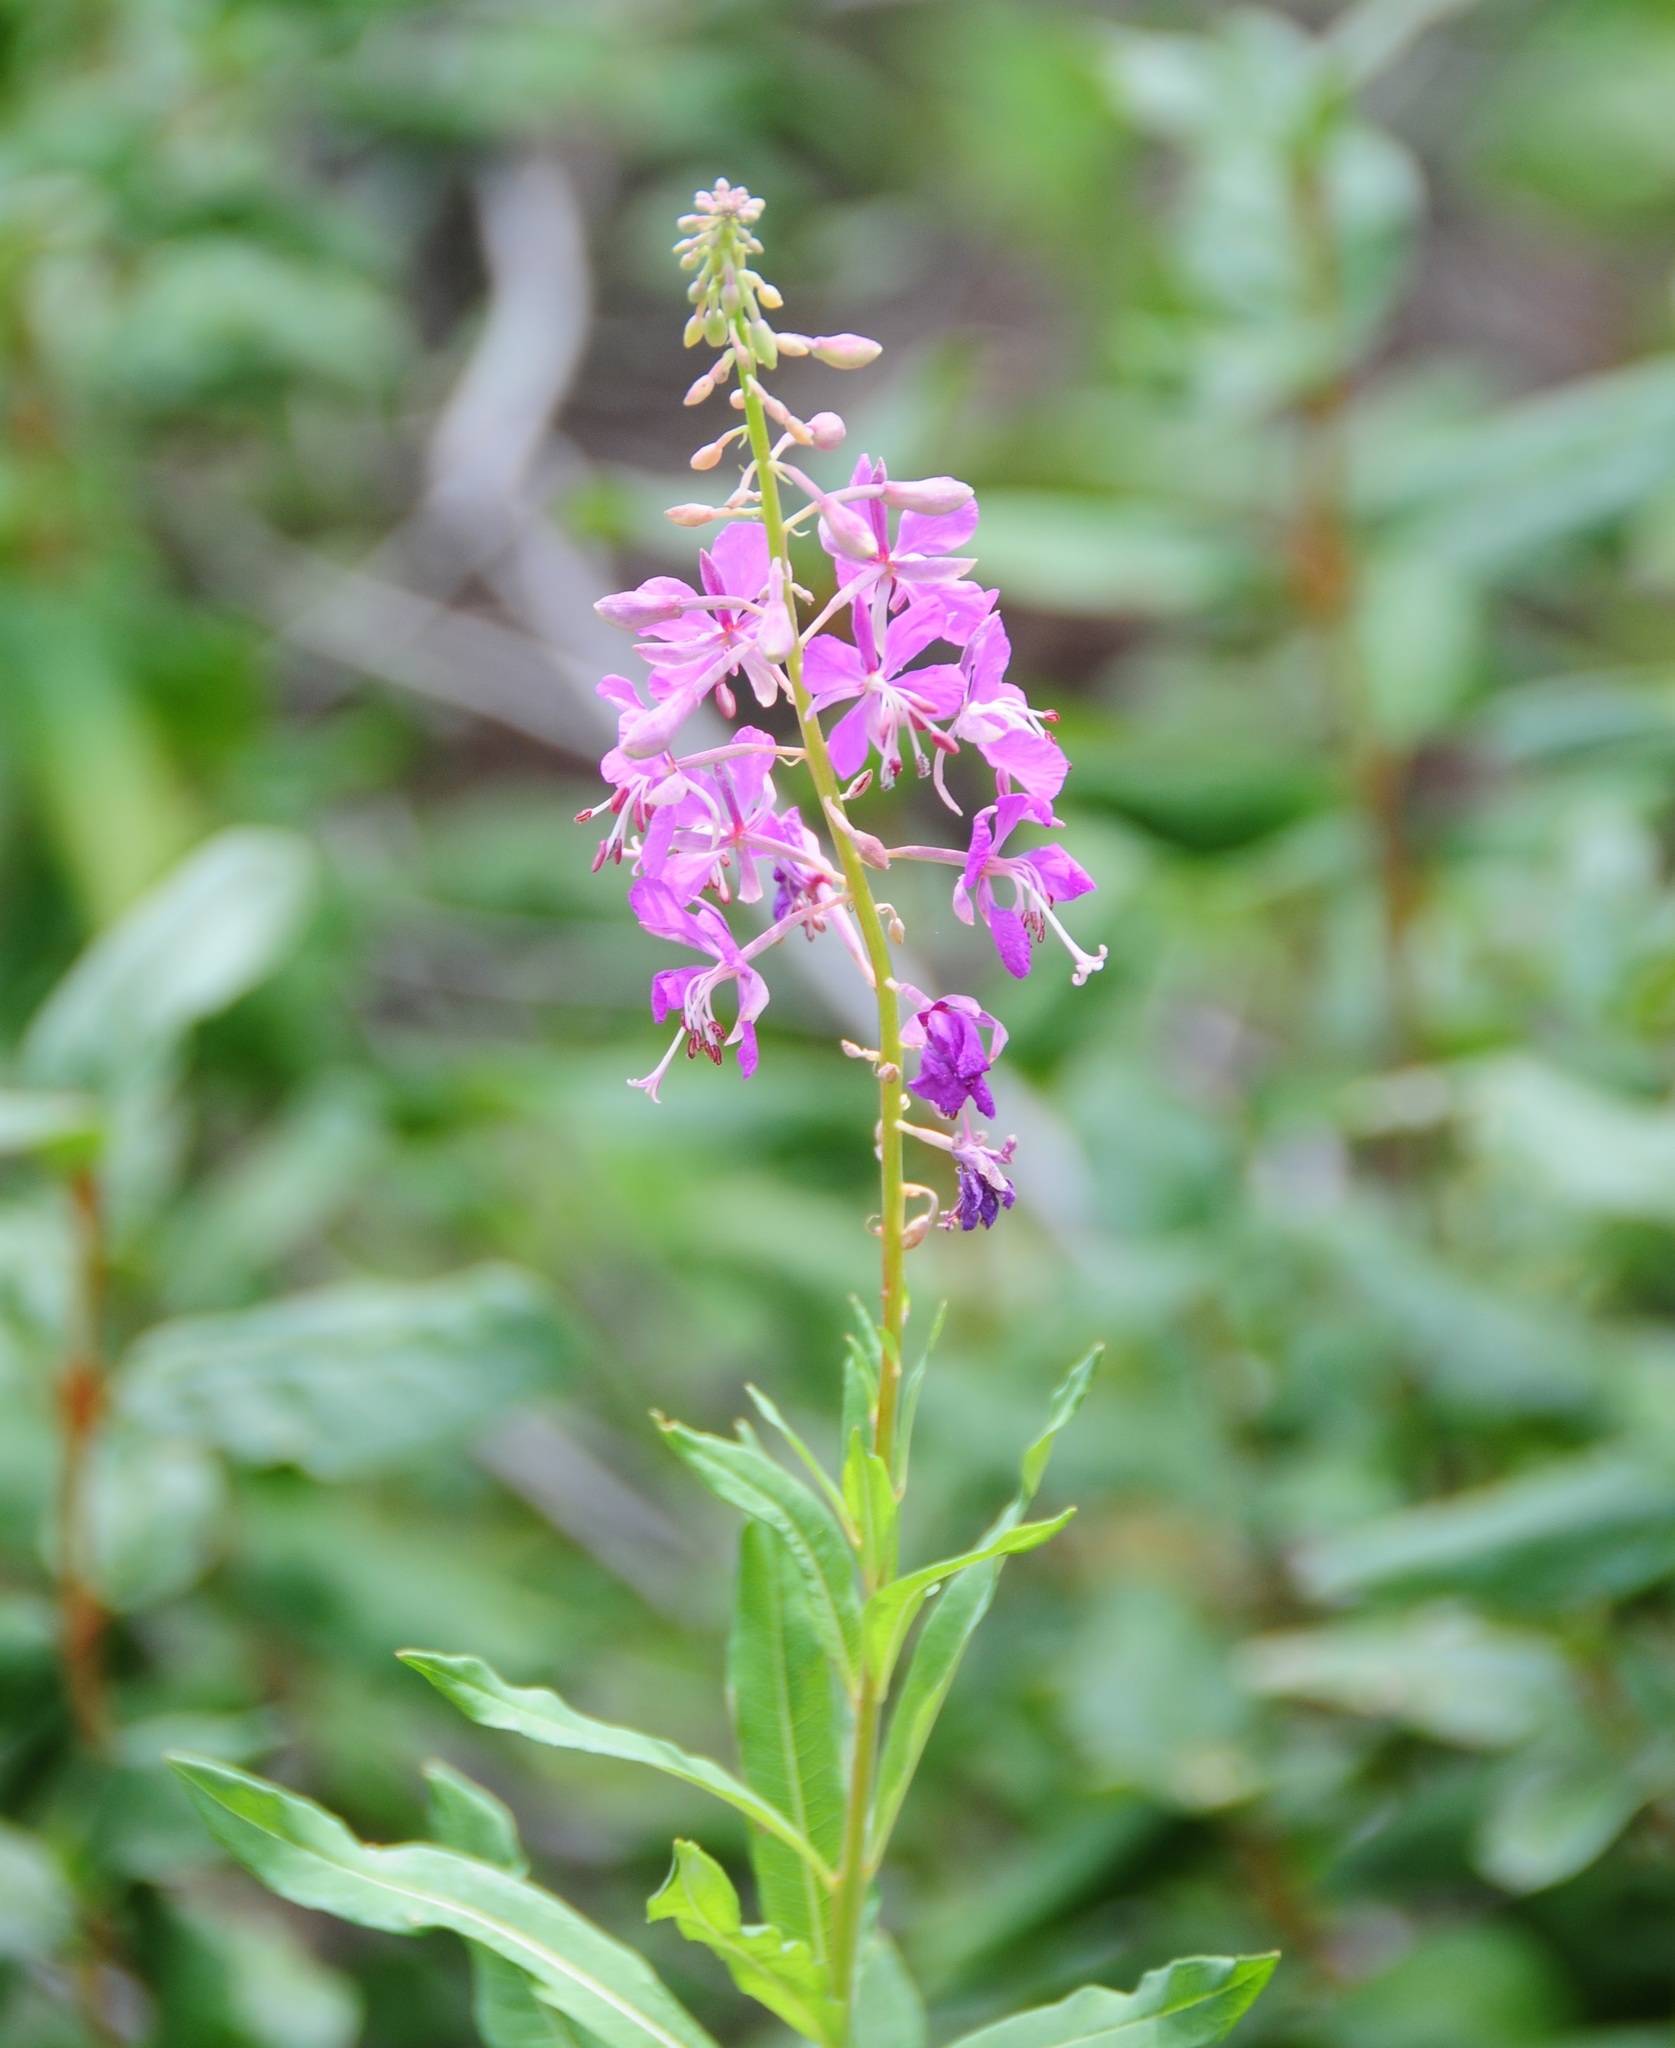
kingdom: Plantae
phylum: Tracheophyta
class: Magnoliopsida
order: Myrtales
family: Onagraceae
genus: Chamaenerion
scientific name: Chamaenerion angustifolium
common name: Fireweed
